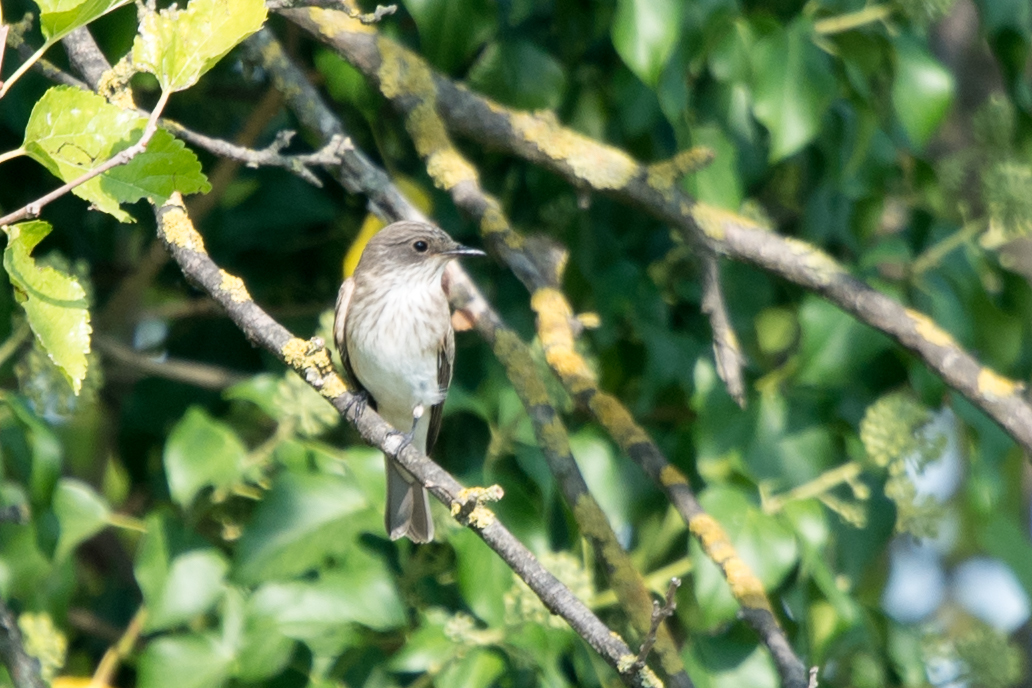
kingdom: Animalia
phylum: Chordata
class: Aves
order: Passeriformes
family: Muscicapidae
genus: Muscicapa
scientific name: Muscicapa striata
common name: Spotted flycatcher
